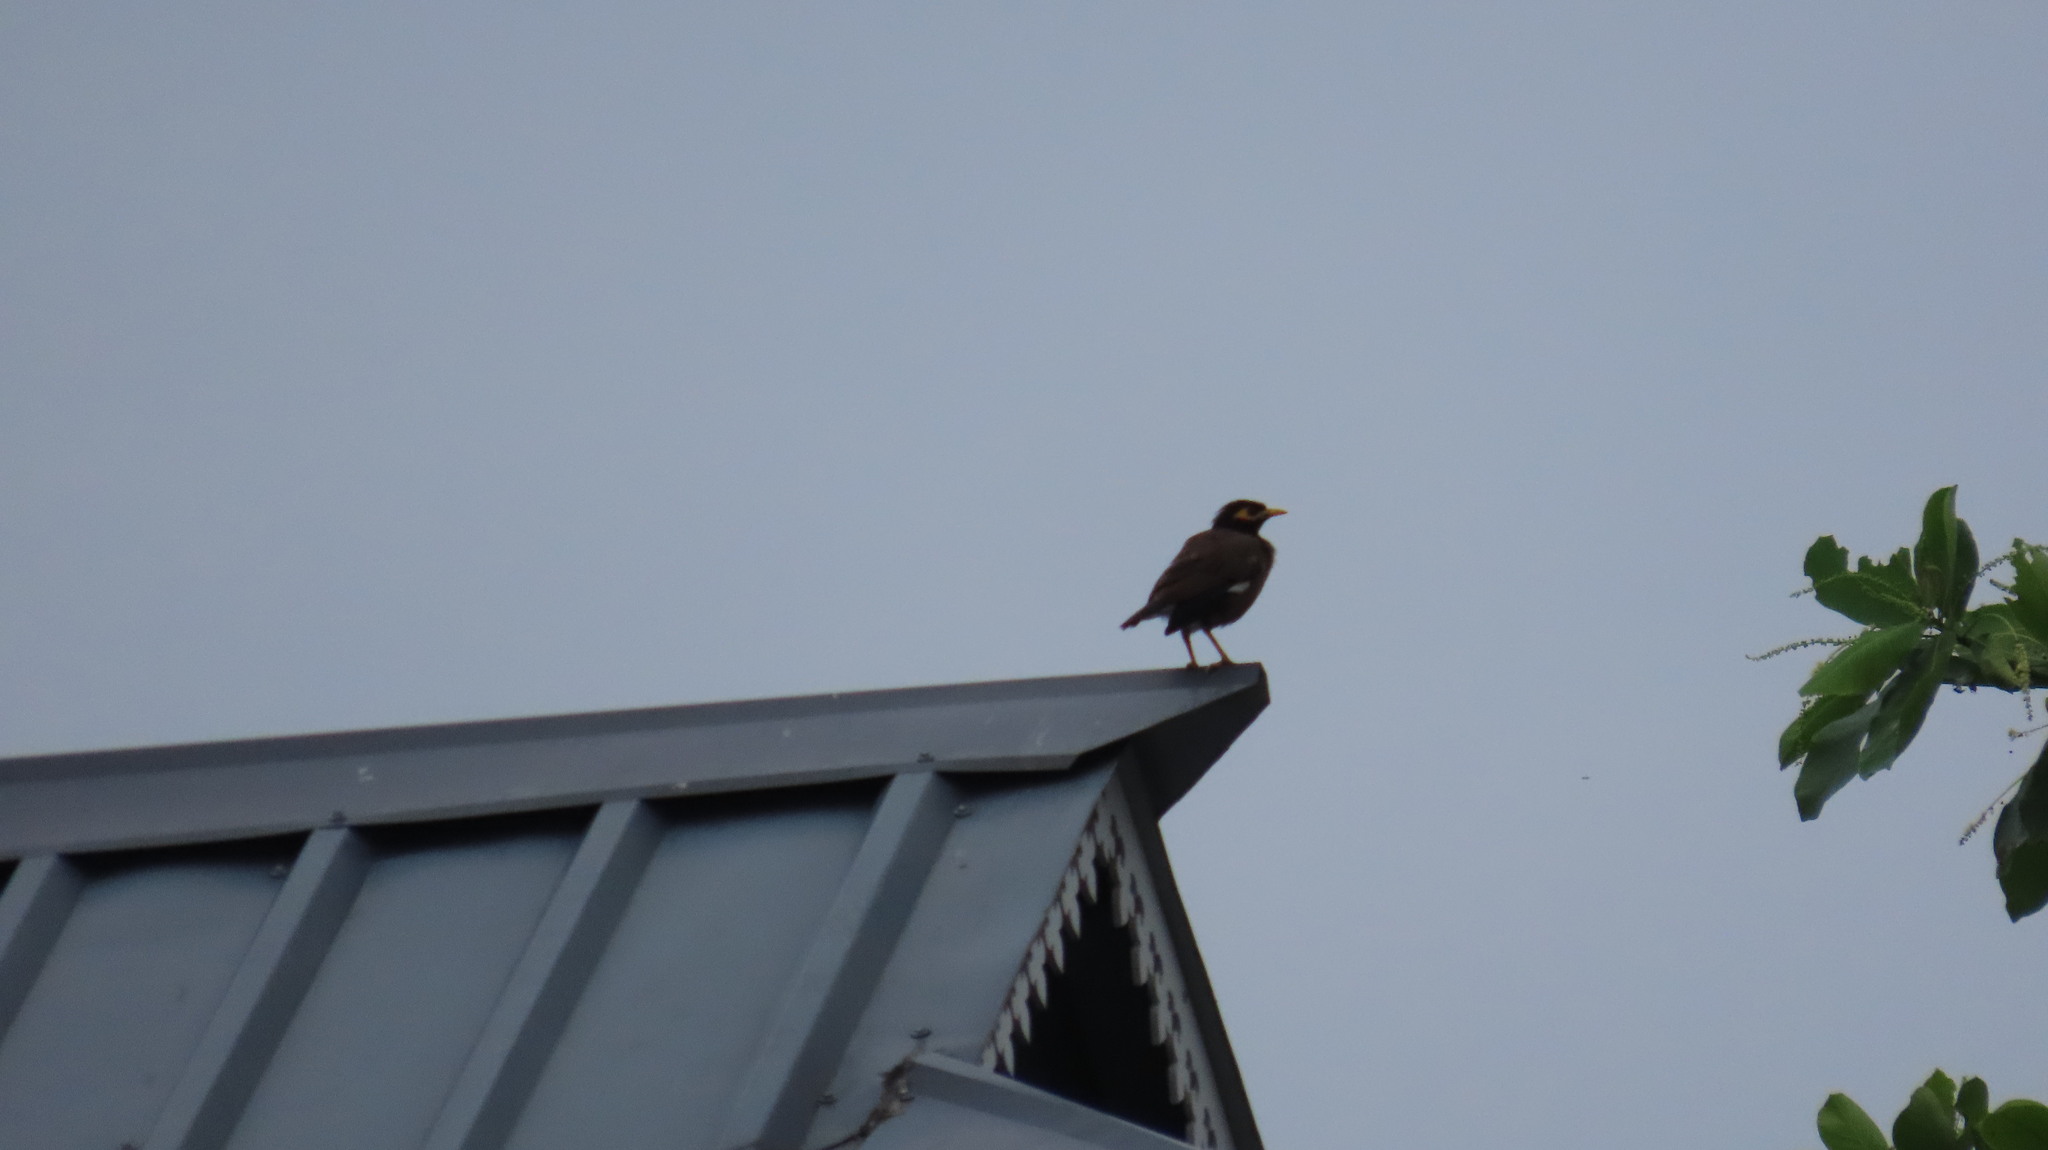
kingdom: Animalia
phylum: Chordata
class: Aves
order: Passeriformes
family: Sturnidae
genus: Acridotheres
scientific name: Acridotheres tristis
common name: Common myna
